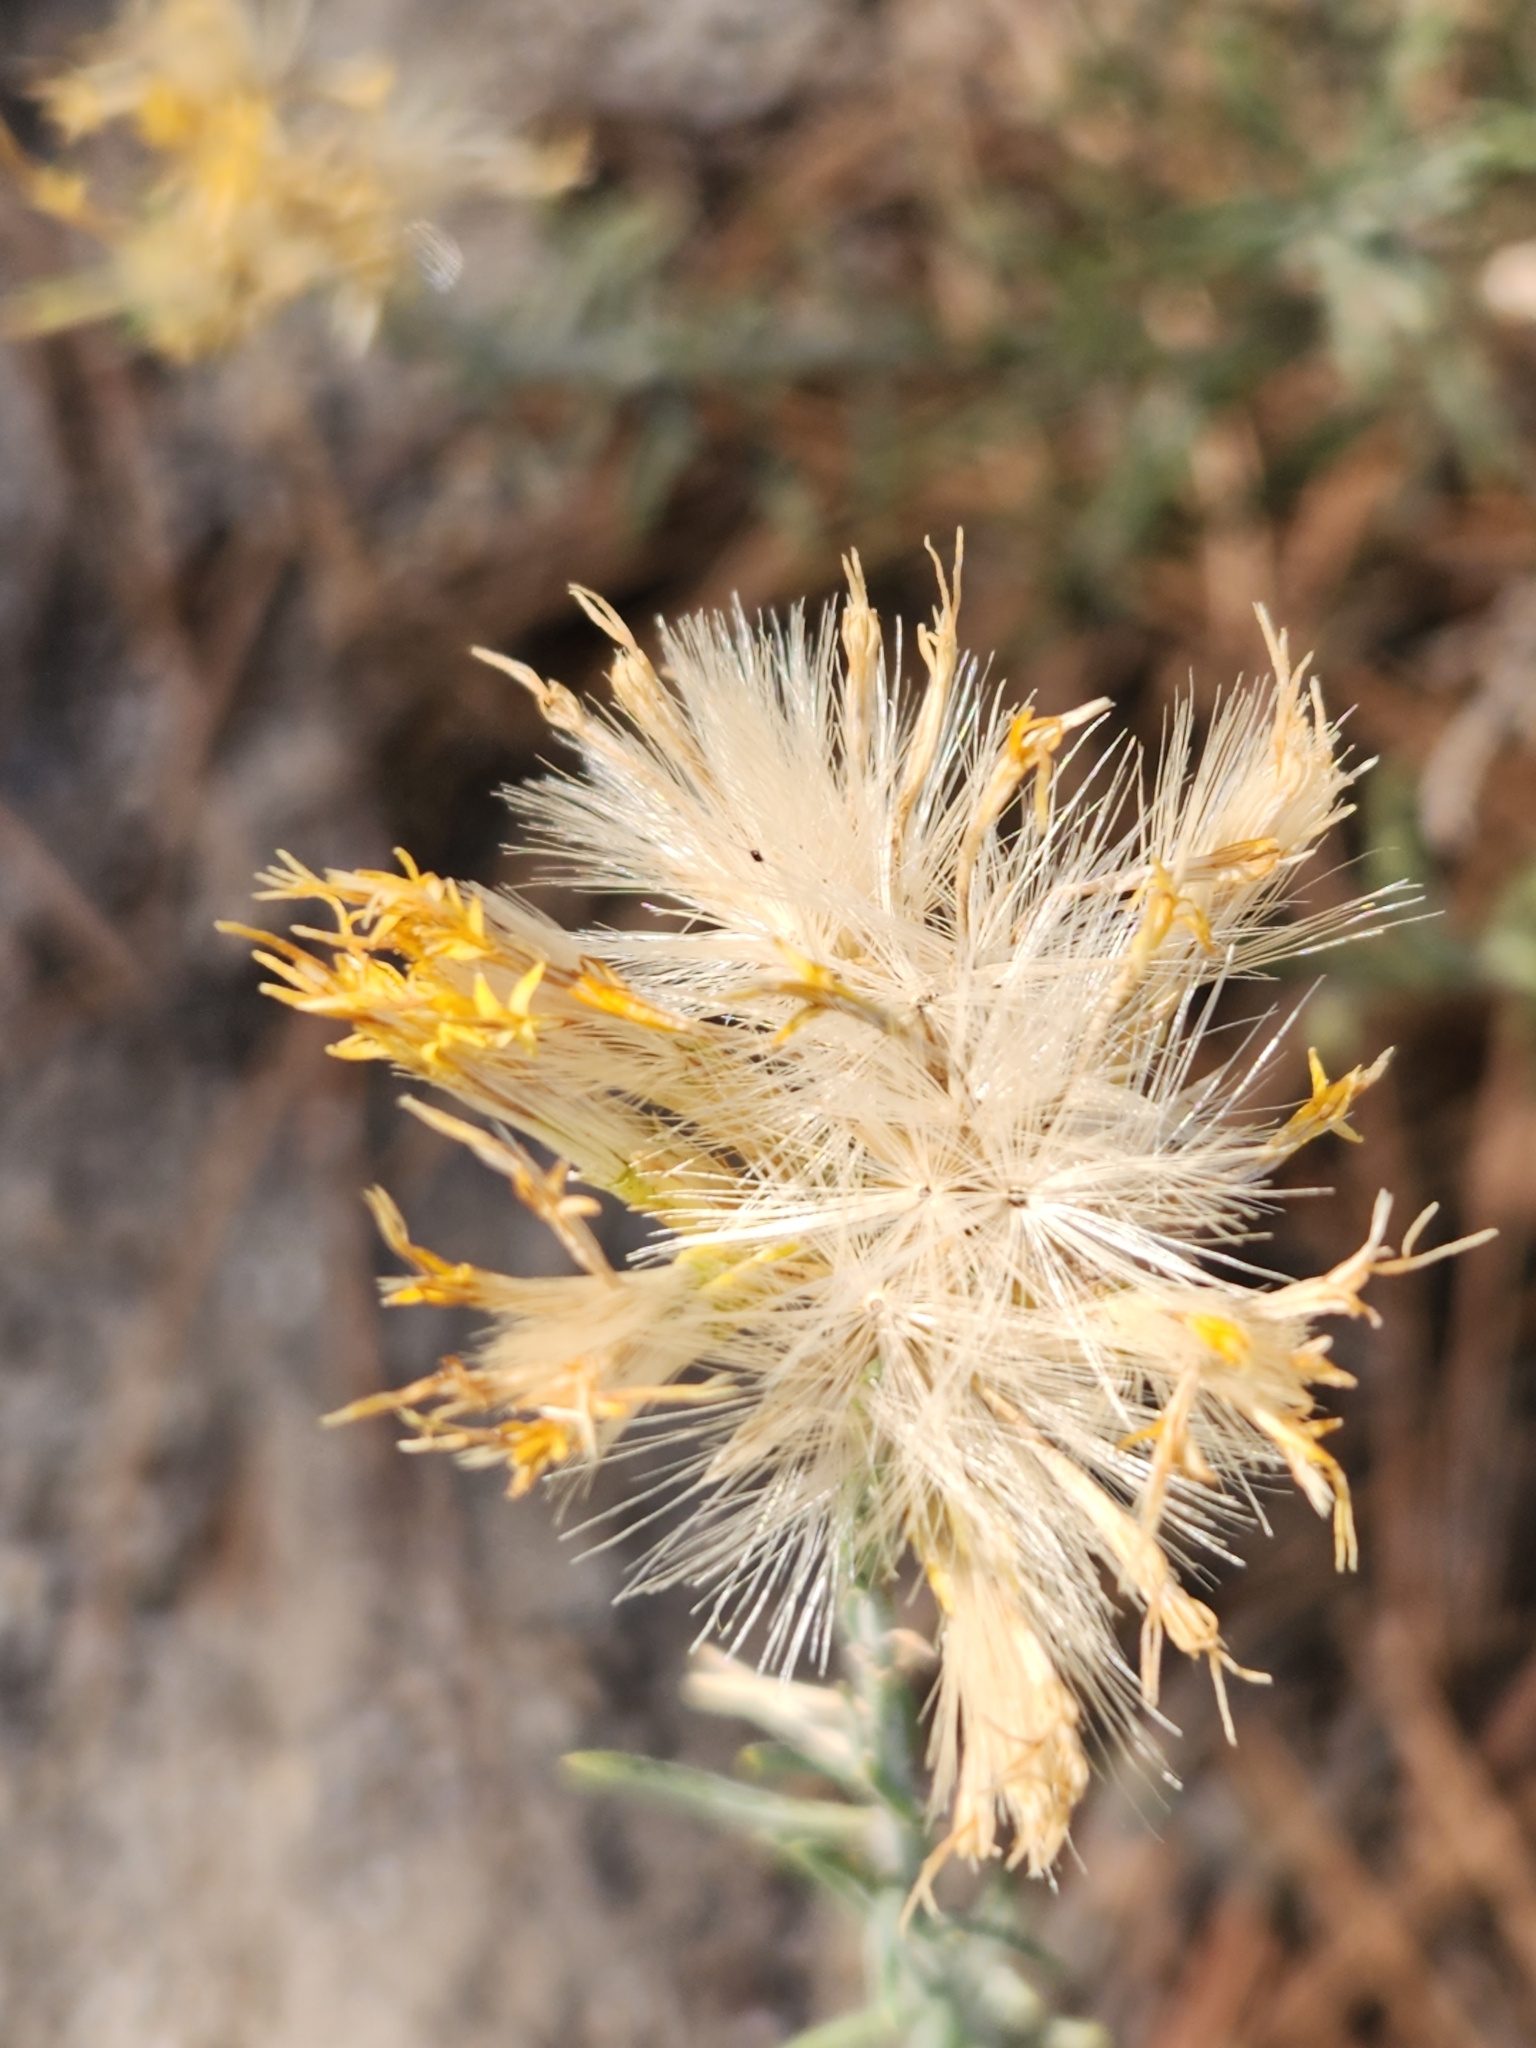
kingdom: Plantae
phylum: Tracheophyta
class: Magnoliopsida
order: Asterales
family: Asteraceae
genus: Ericameria
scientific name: Ericameria nauseosa
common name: Rubber rabbitbrush
